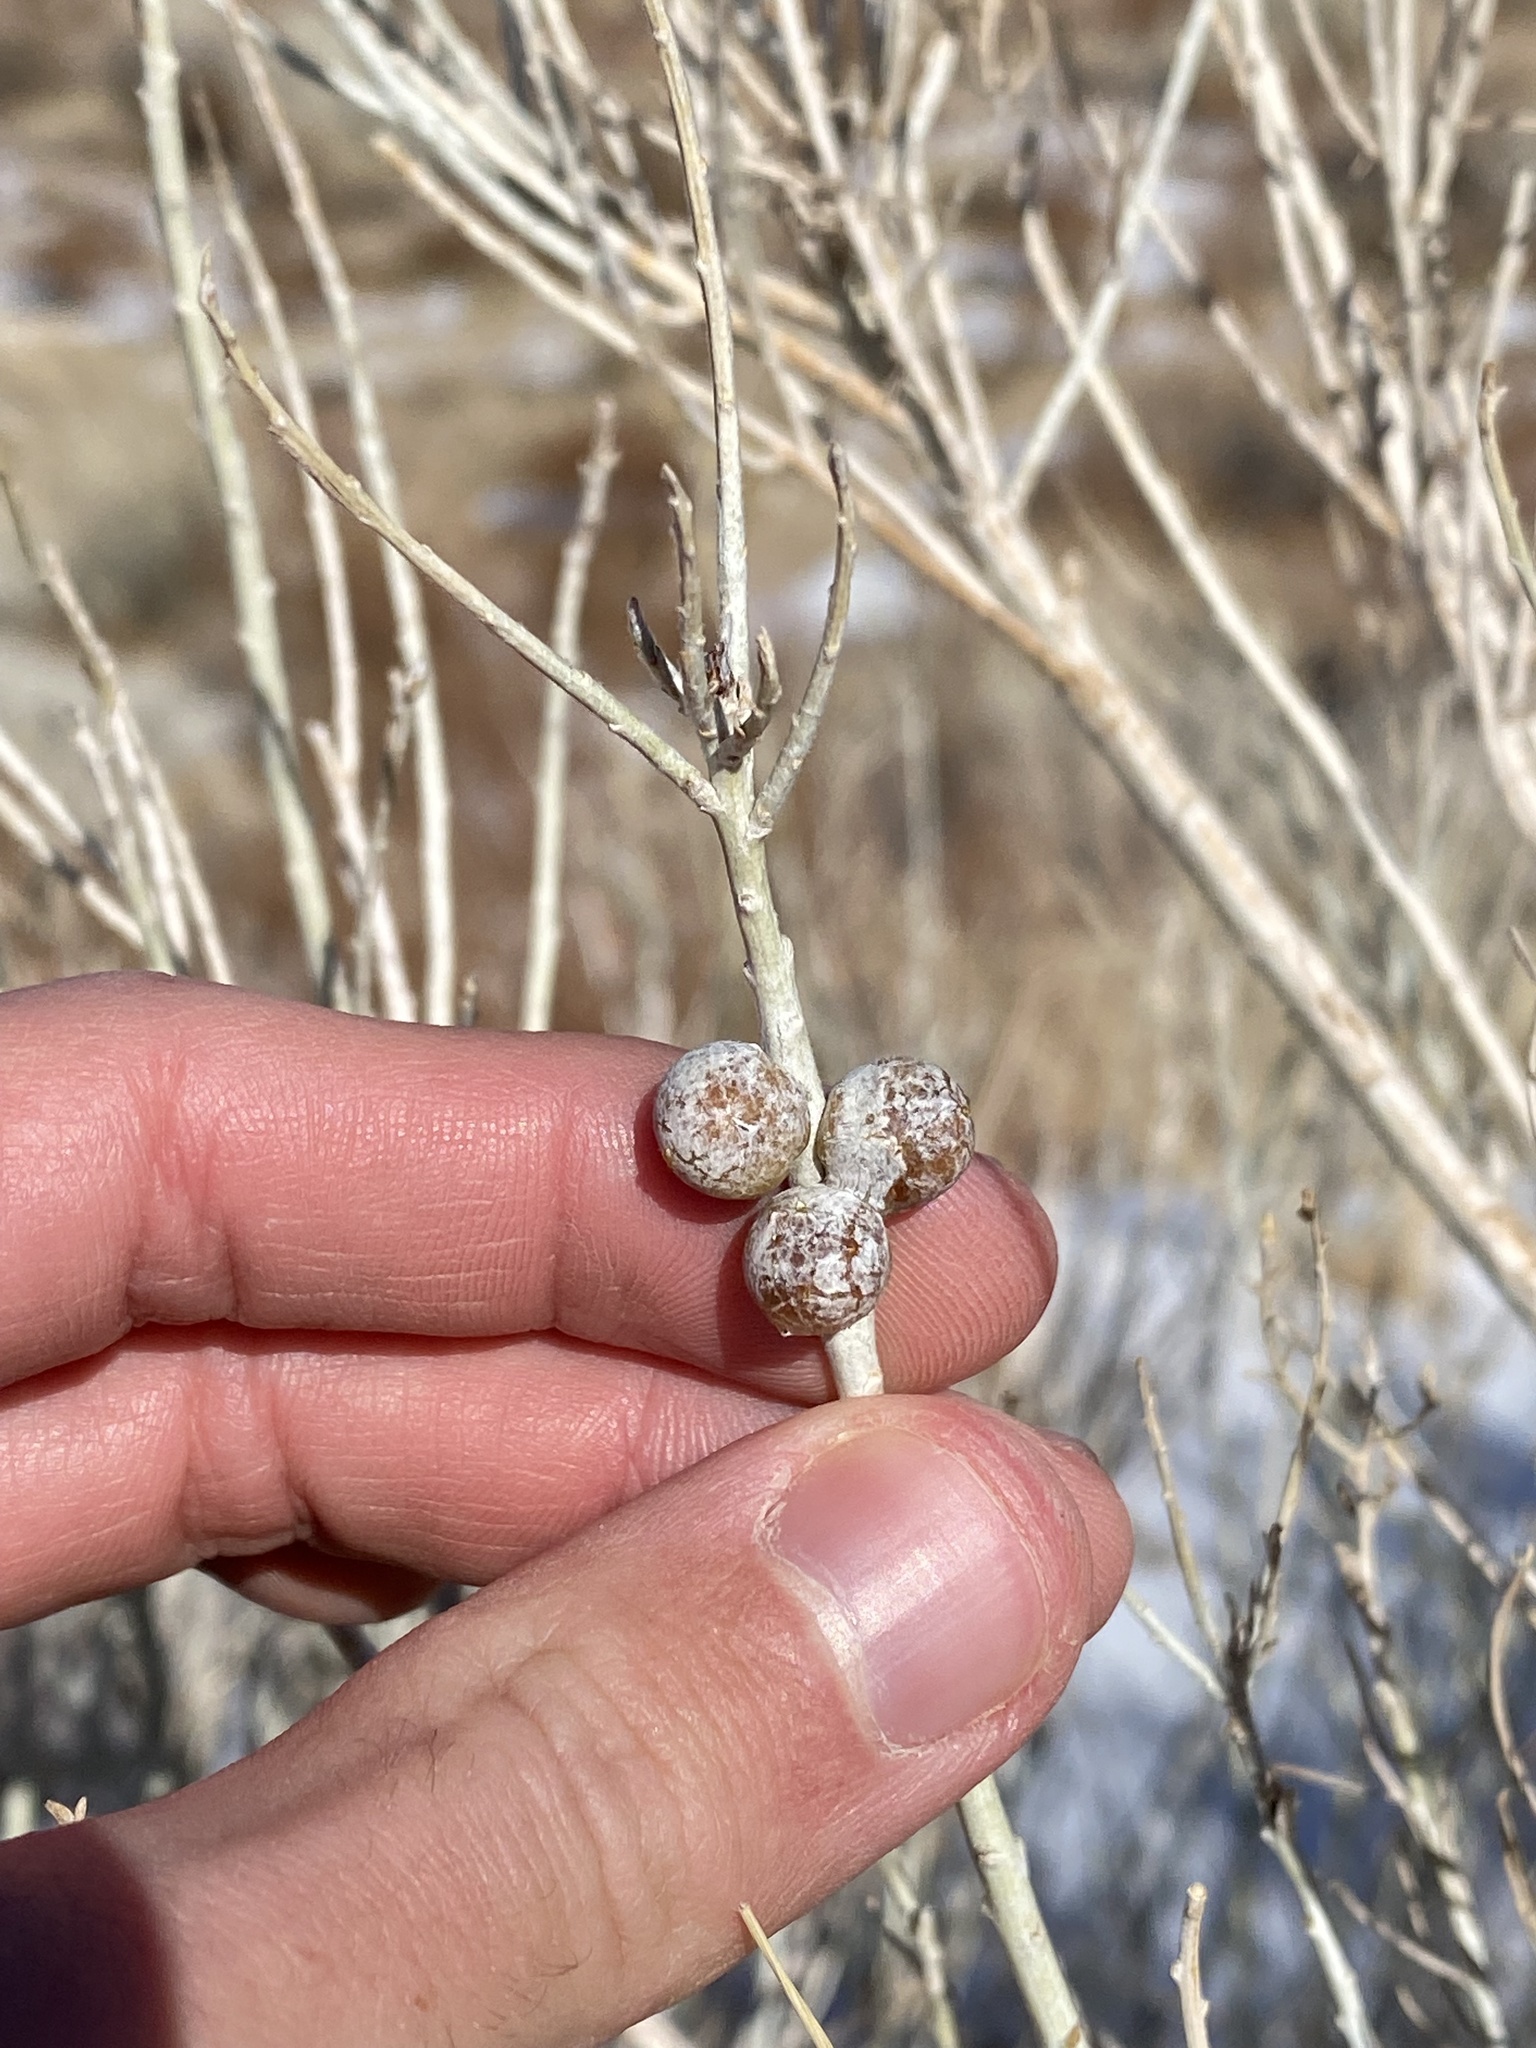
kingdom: Animalia
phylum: Arthropoda
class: Insecta
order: Diptera
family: Tephritidae
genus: Aciurina
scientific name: Aciurina trixa
